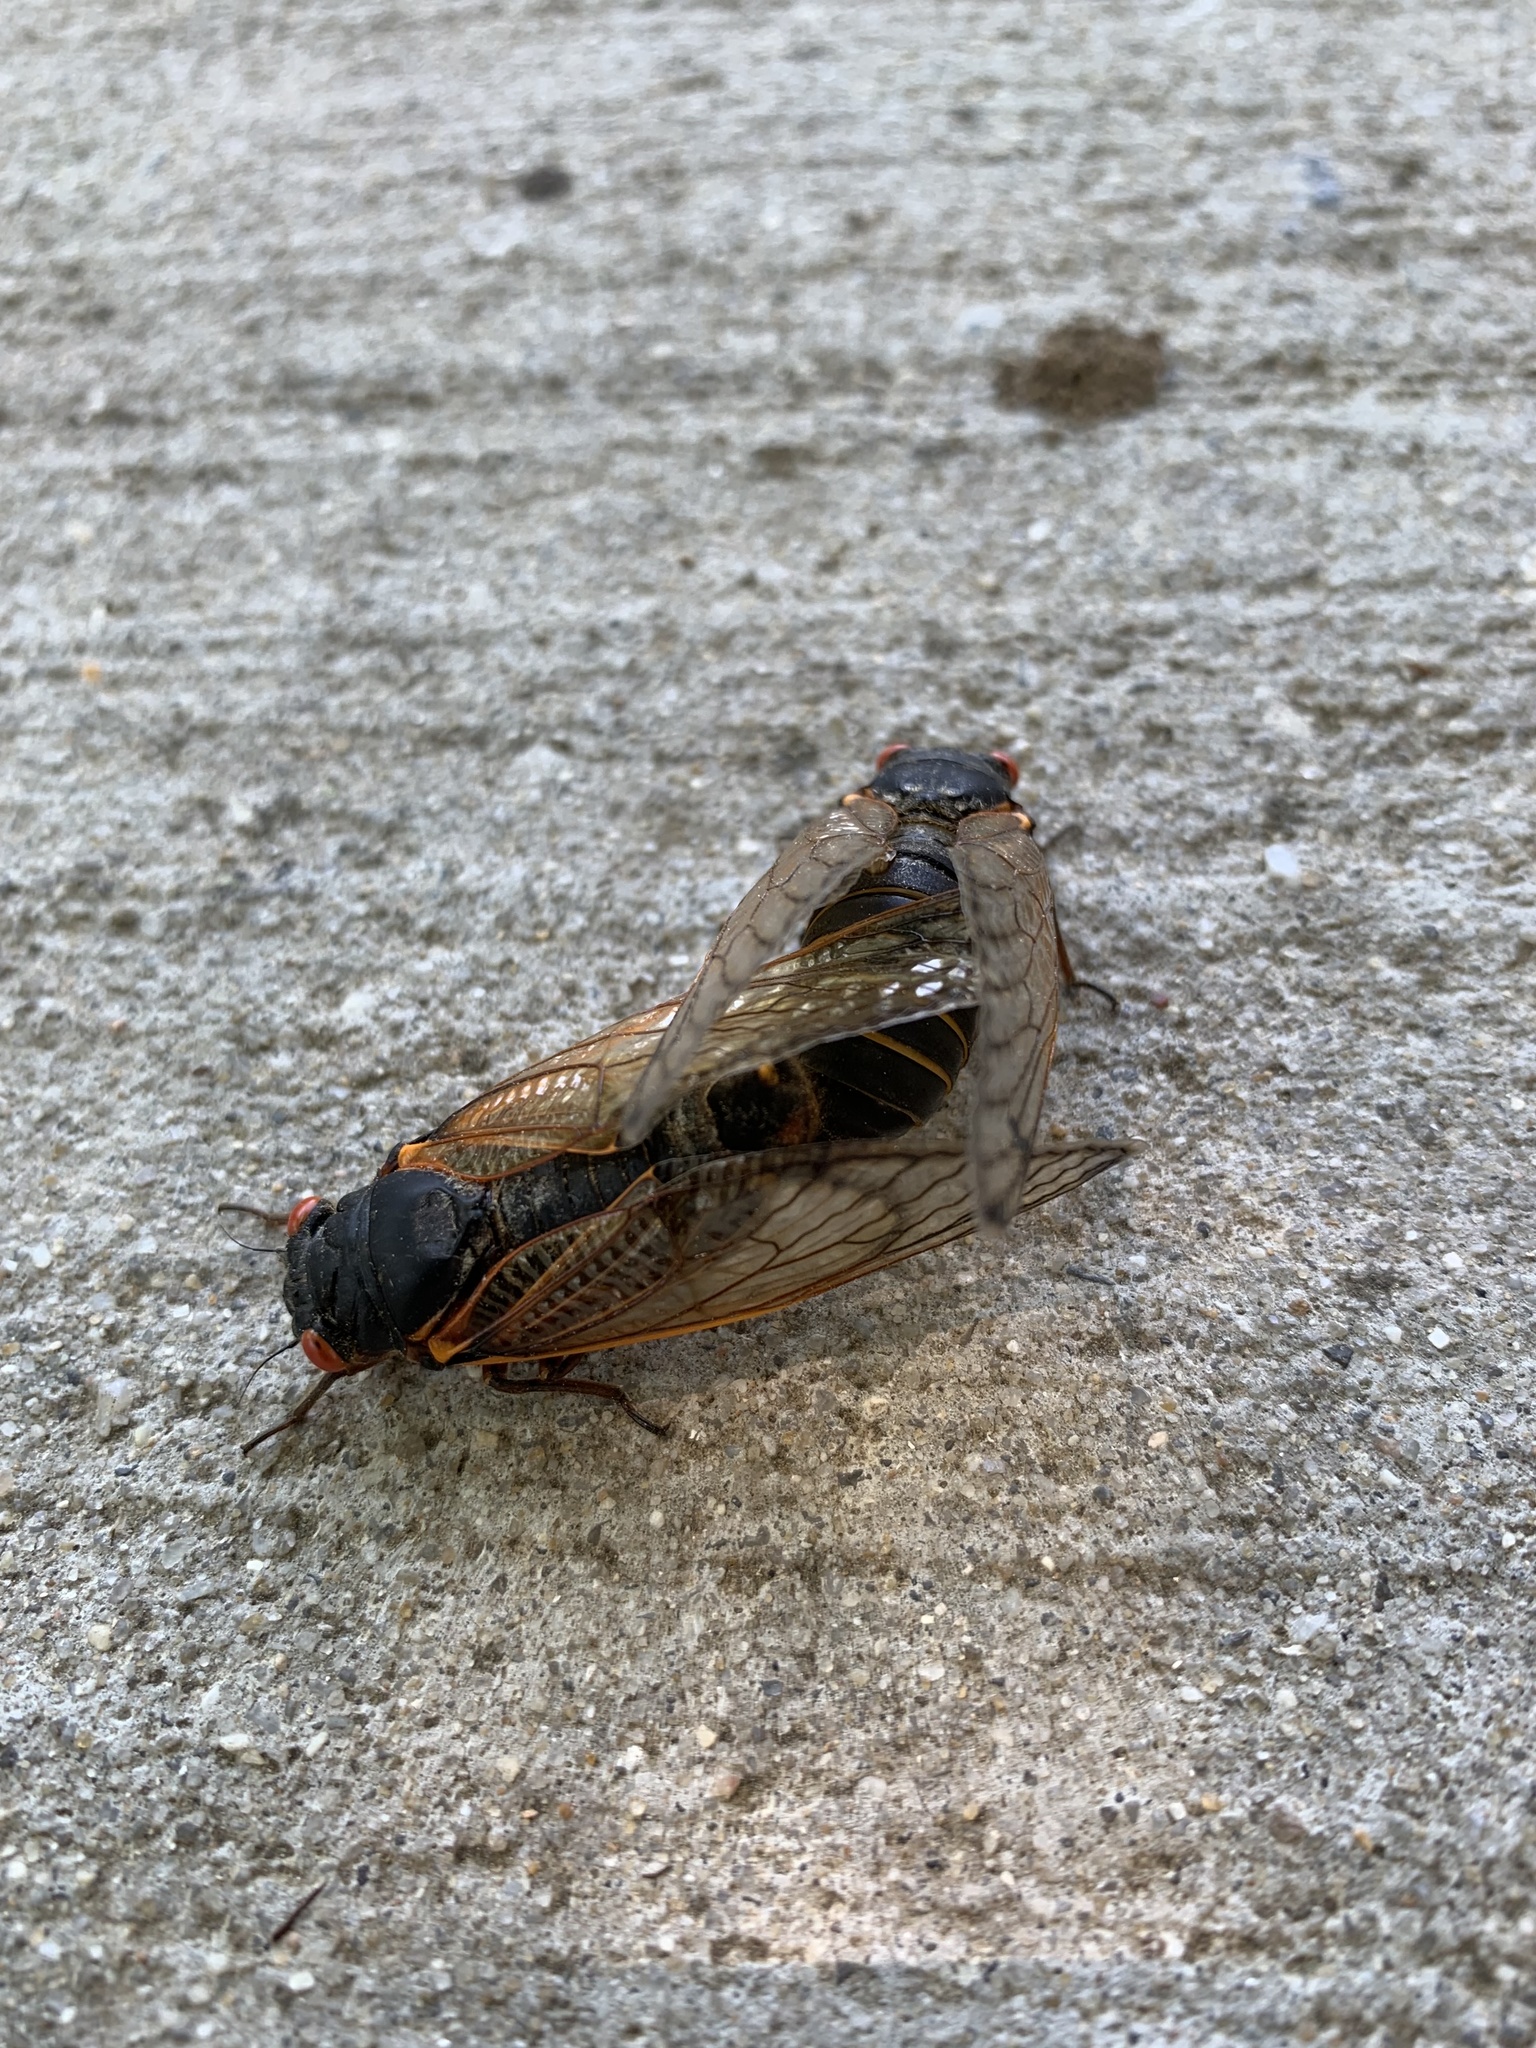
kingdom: Animalia
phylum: Arthropoda
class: Insecta
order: Hemiptera
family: Cicadidae
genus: Magicicada
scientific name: Magicicada septendecim
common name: Periodical cicada
